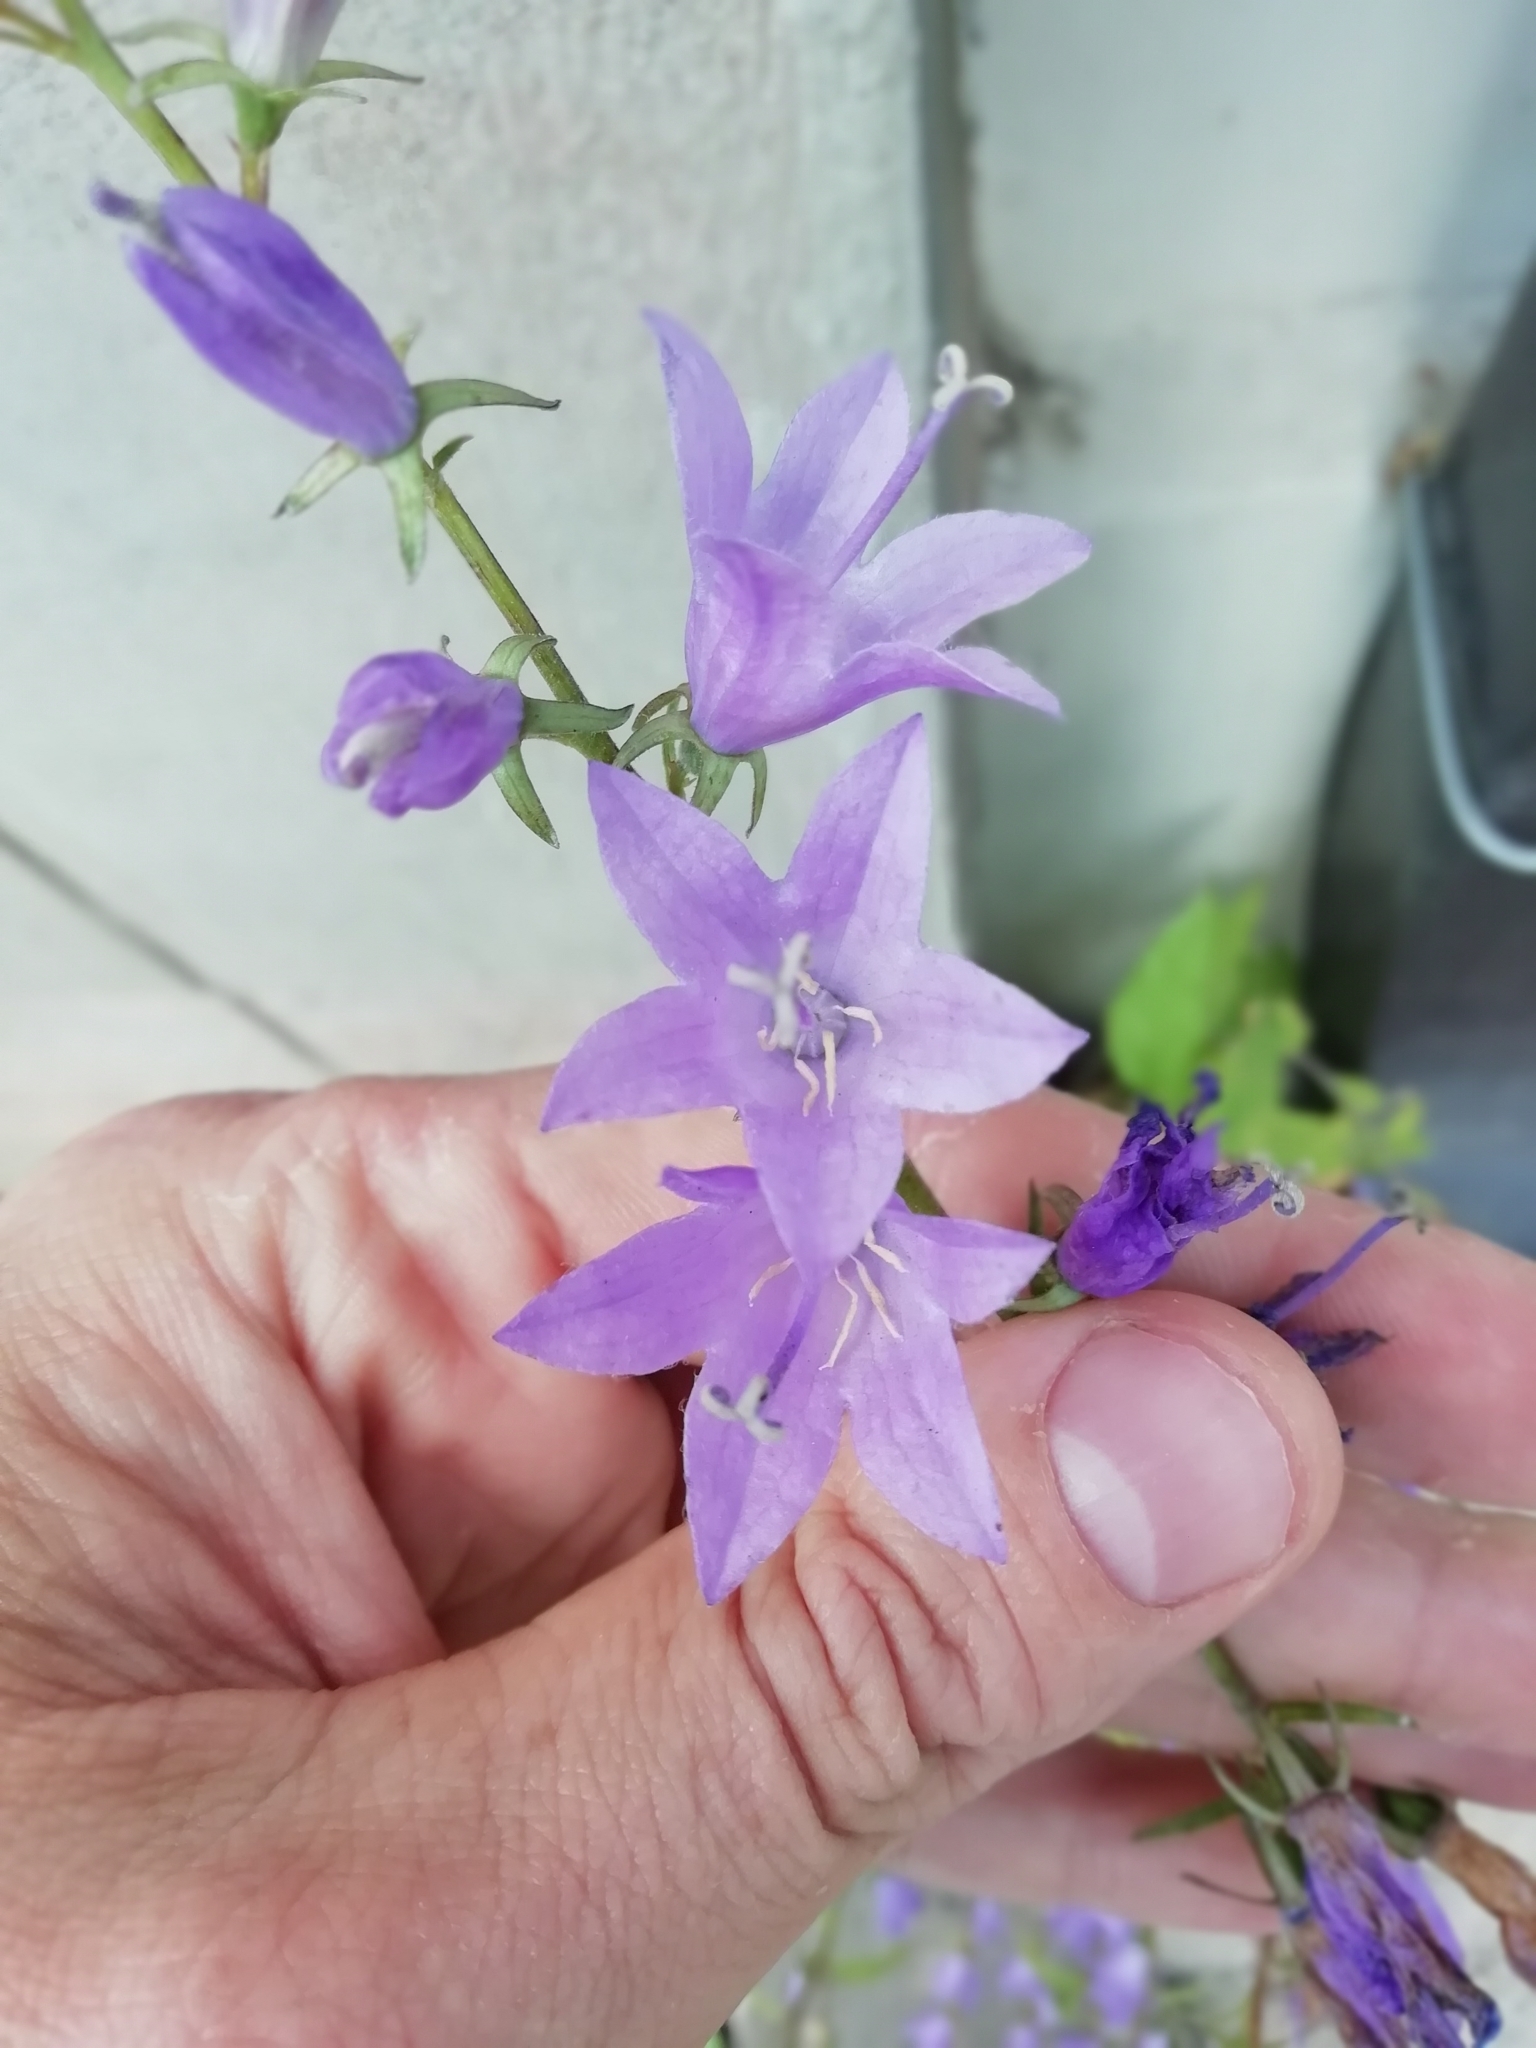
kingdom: Plantae
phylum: Tracheophyta
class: Magnoliopsida
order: Asterales
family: Campanulaceae
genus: Campanula
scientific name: Campanula rapunculoides
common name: Creeping bellflower
